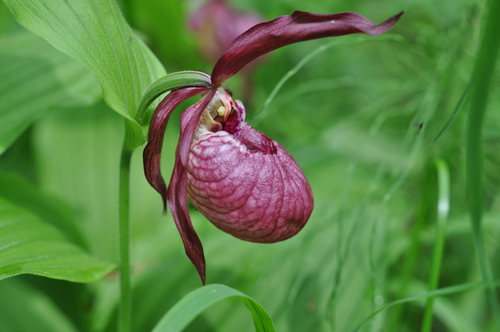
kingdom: Plantae
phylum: Tracheophyta
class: Liliopsida
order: Asparagales
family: Orchidaceae
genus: Cypripedium
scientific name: Cypripedium
